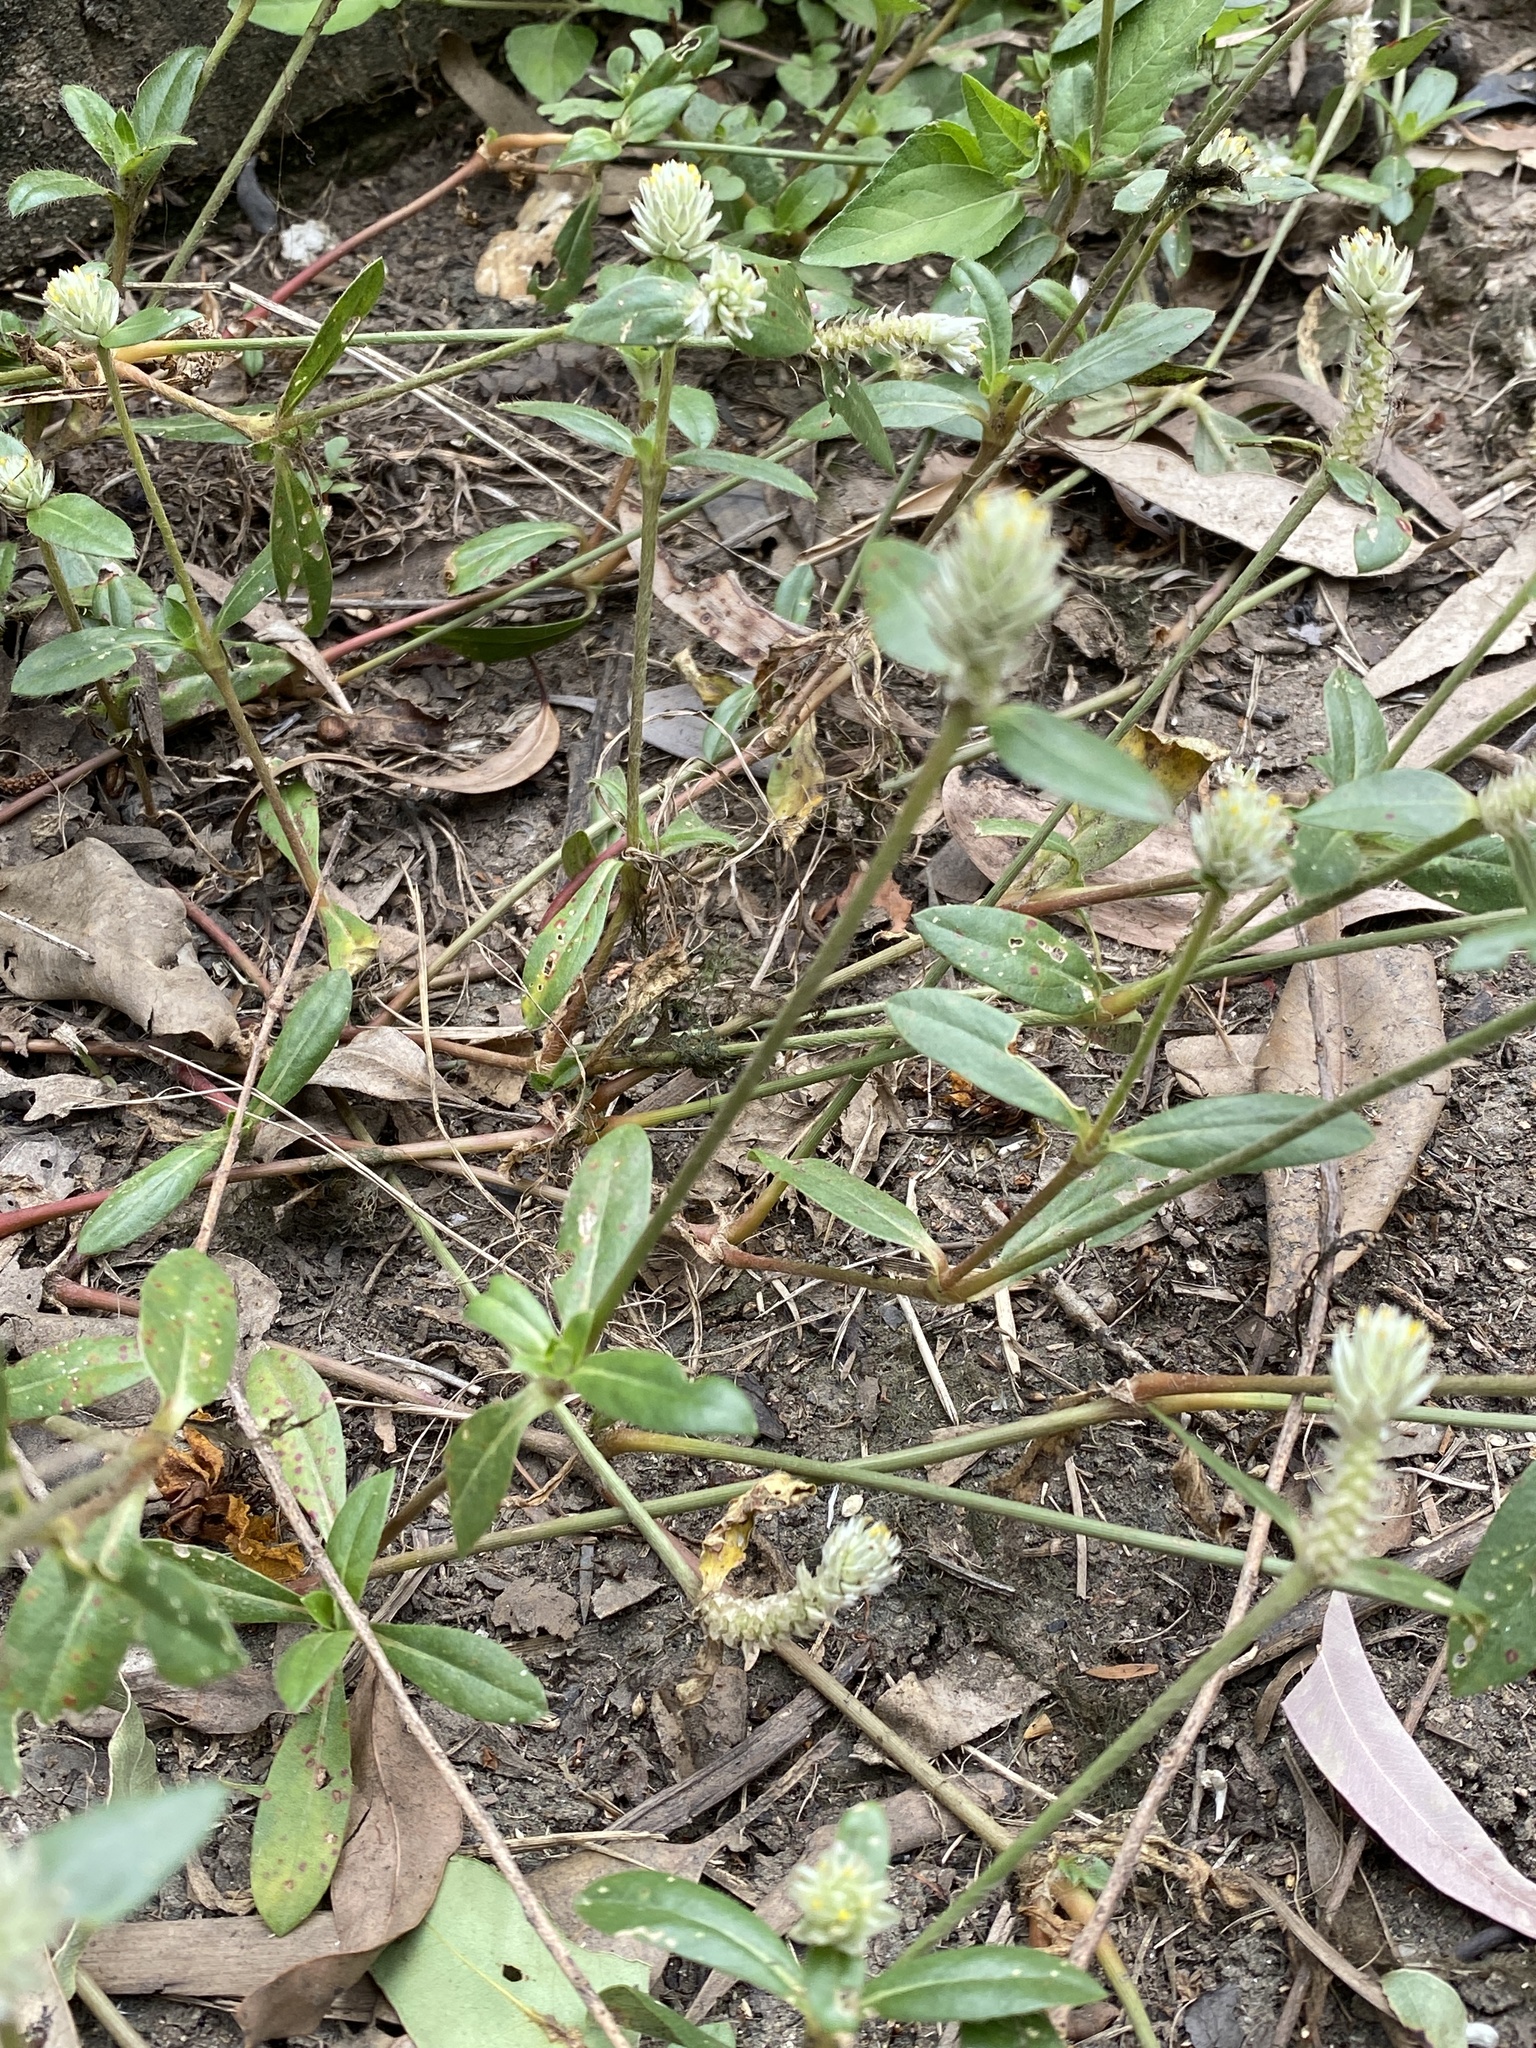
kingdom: Plantae
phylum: Tracheophyta
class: Magnoliopsida
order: Caryophyllales
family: Amaranthaceae
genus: Gomphrena
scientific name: Gomphrena celosioides
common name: Gomphrena-weed
